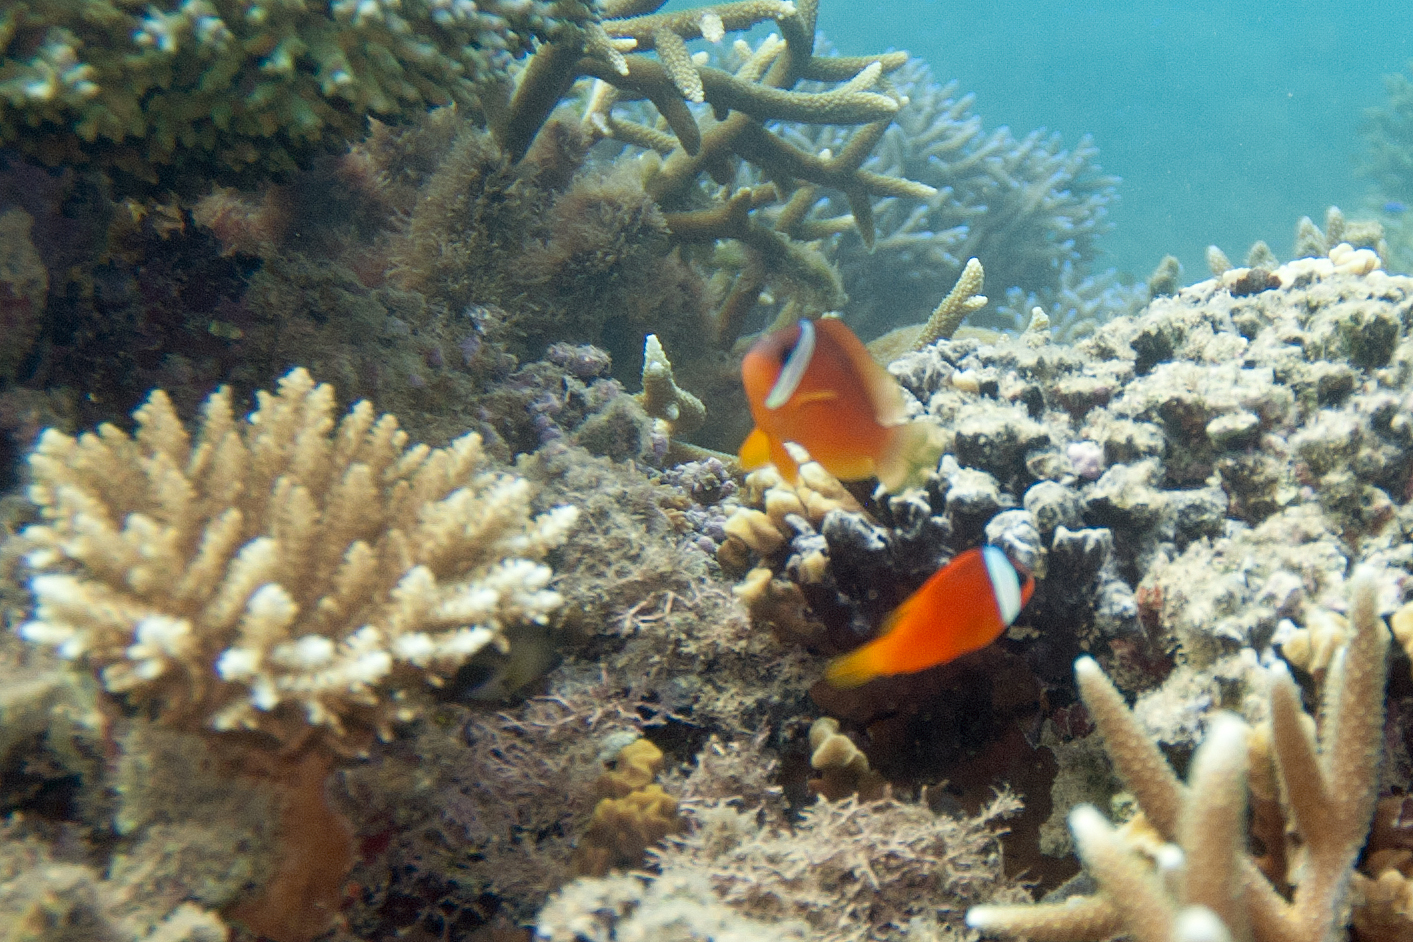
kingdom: Animalia
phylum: Chordata
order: Perciformes
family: Pomacentridae
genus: Amphiprion
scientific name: Amphiprion barberi
